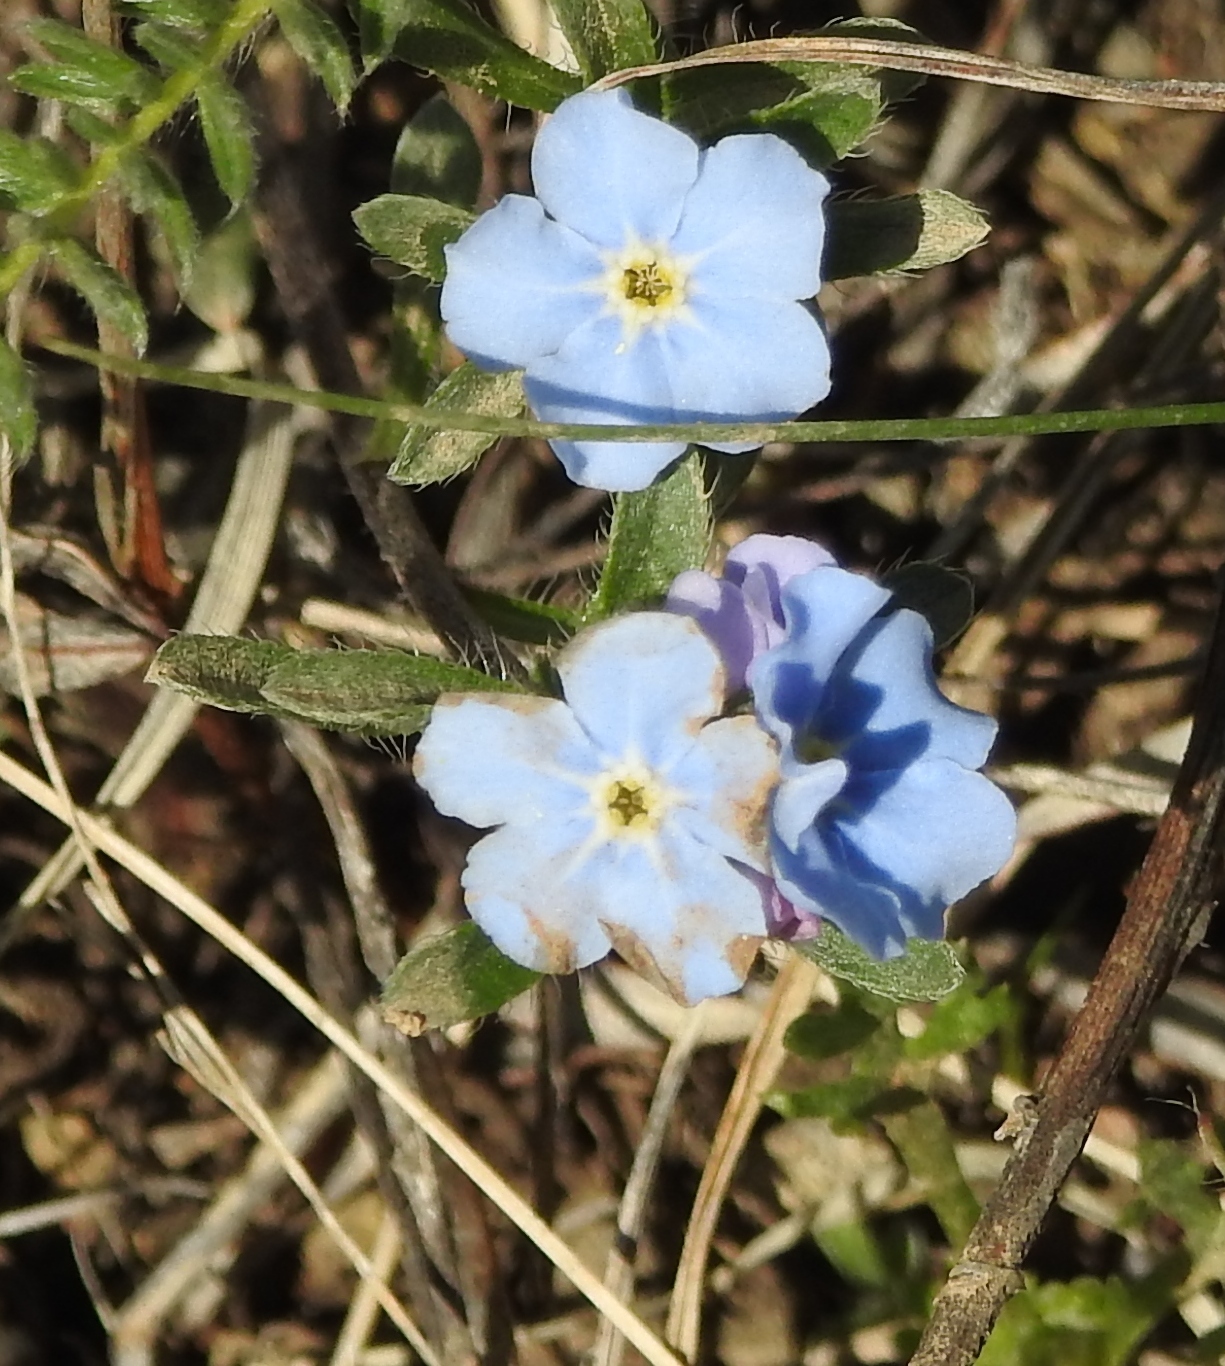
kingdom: Plantae
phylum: Tracheophyta
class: Magnoliopsida
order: Boraginales
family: Boraginaceae
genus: Eritrichium
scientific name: Eritrichium rupestre
